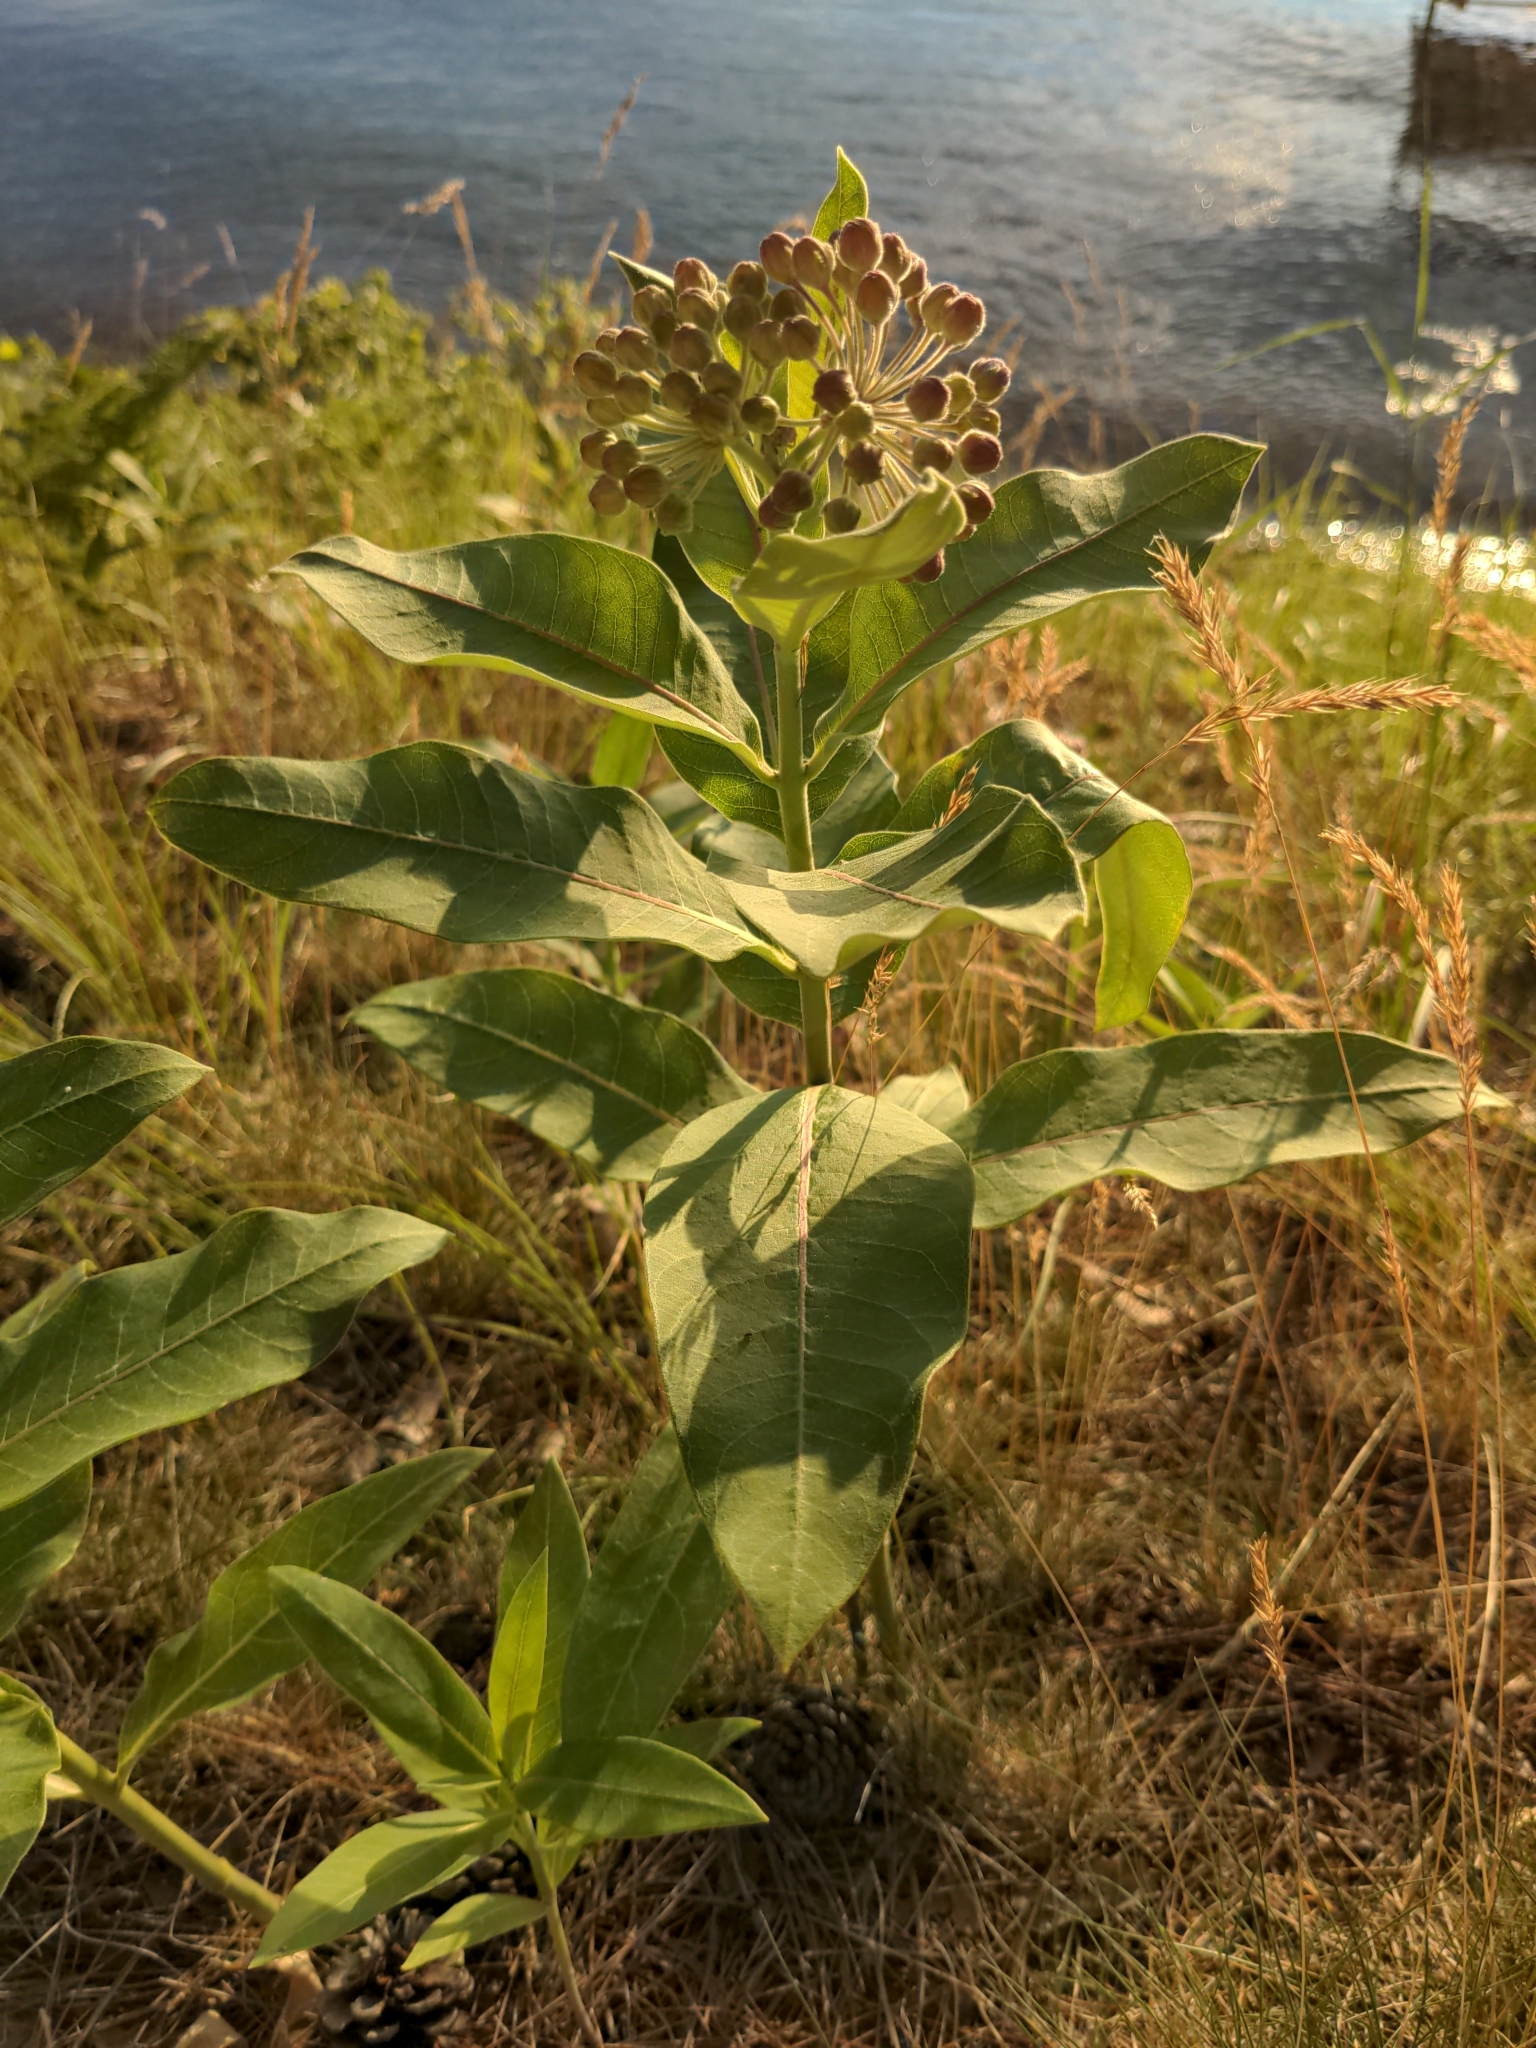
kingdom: Plantae
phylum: Tracheophyta
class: Magnoliopsida
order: Gentianales
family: Apocynaceae
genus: Asclepias
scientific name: Asclepias syriaca
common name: Common milkweed
